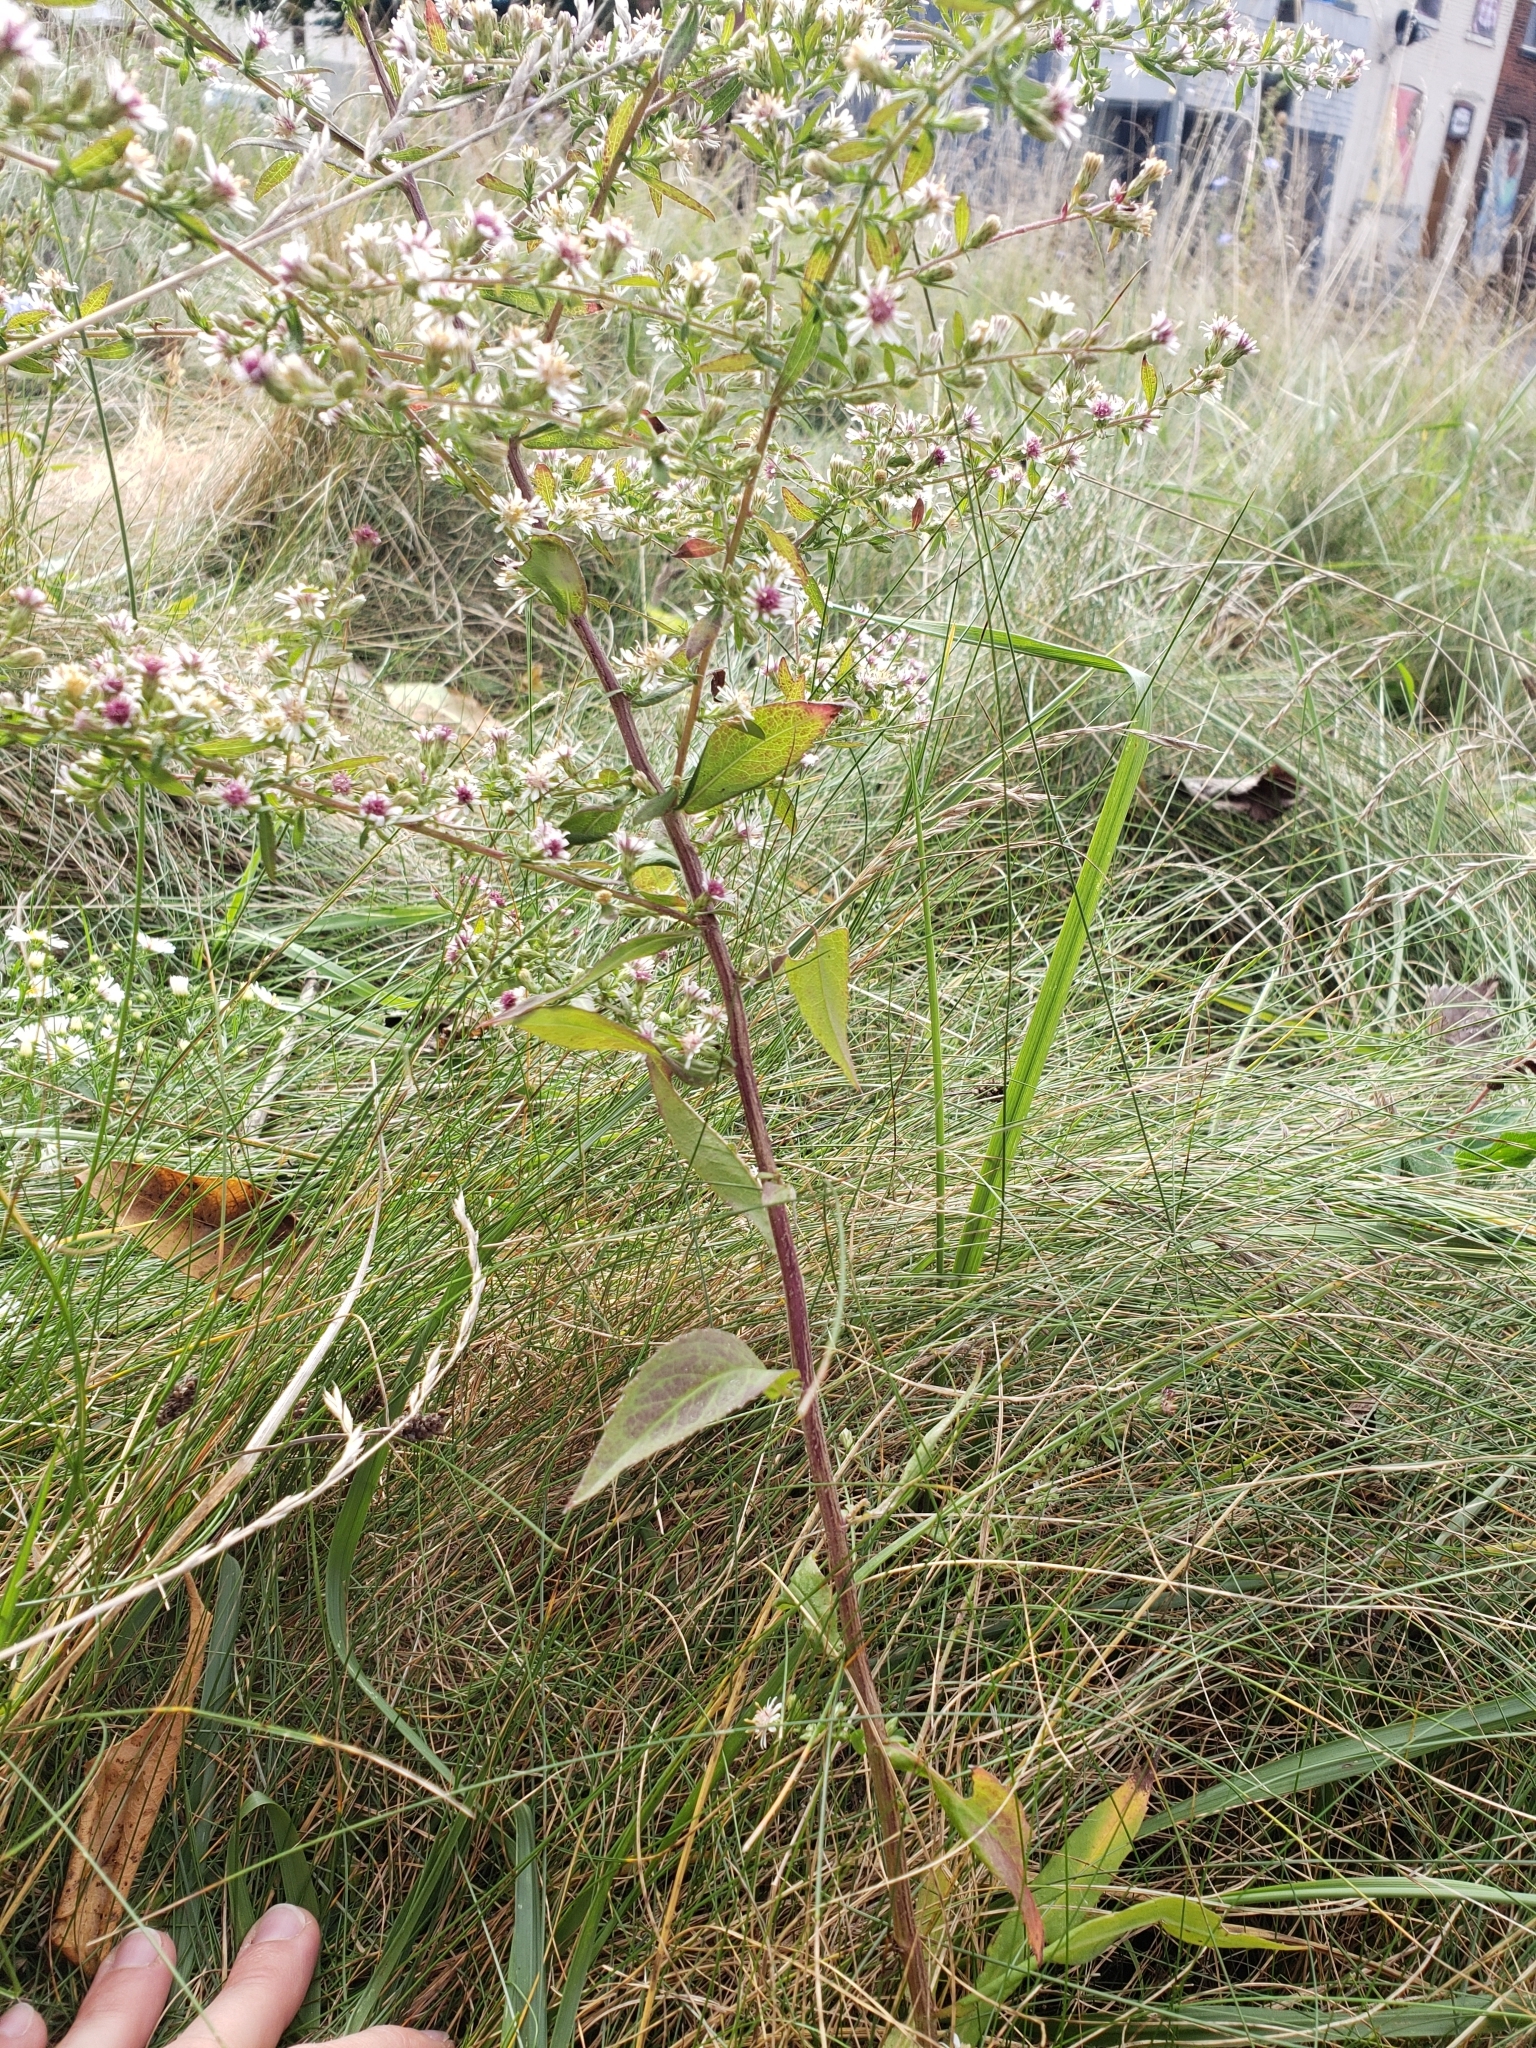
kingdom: Plantae
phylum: Tracheophyta
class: Magnoliopsida
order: Asterales
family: Asteraceae
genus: Symphyotrichum
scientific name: Symphyotrichum lateriflorum
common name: Calico aster
